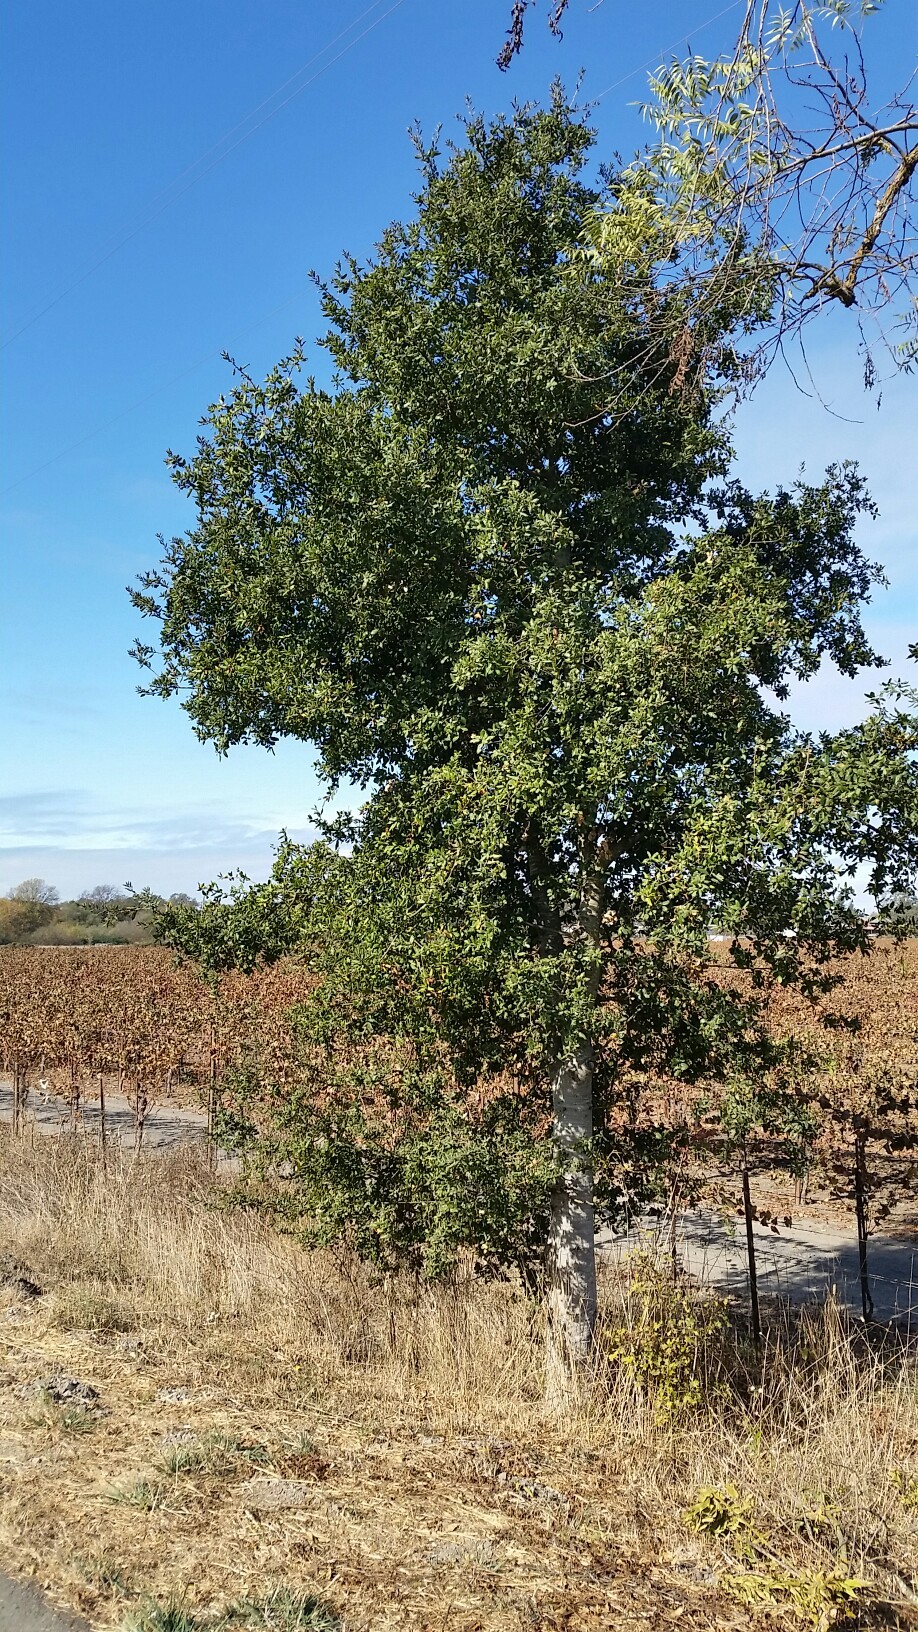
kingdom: Plantae
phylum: Tracheophyta
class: Magnoliopsida
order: Fagales
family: Fagaceae
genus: Quercus
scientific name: Quercus agrifolia
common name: California live oak
